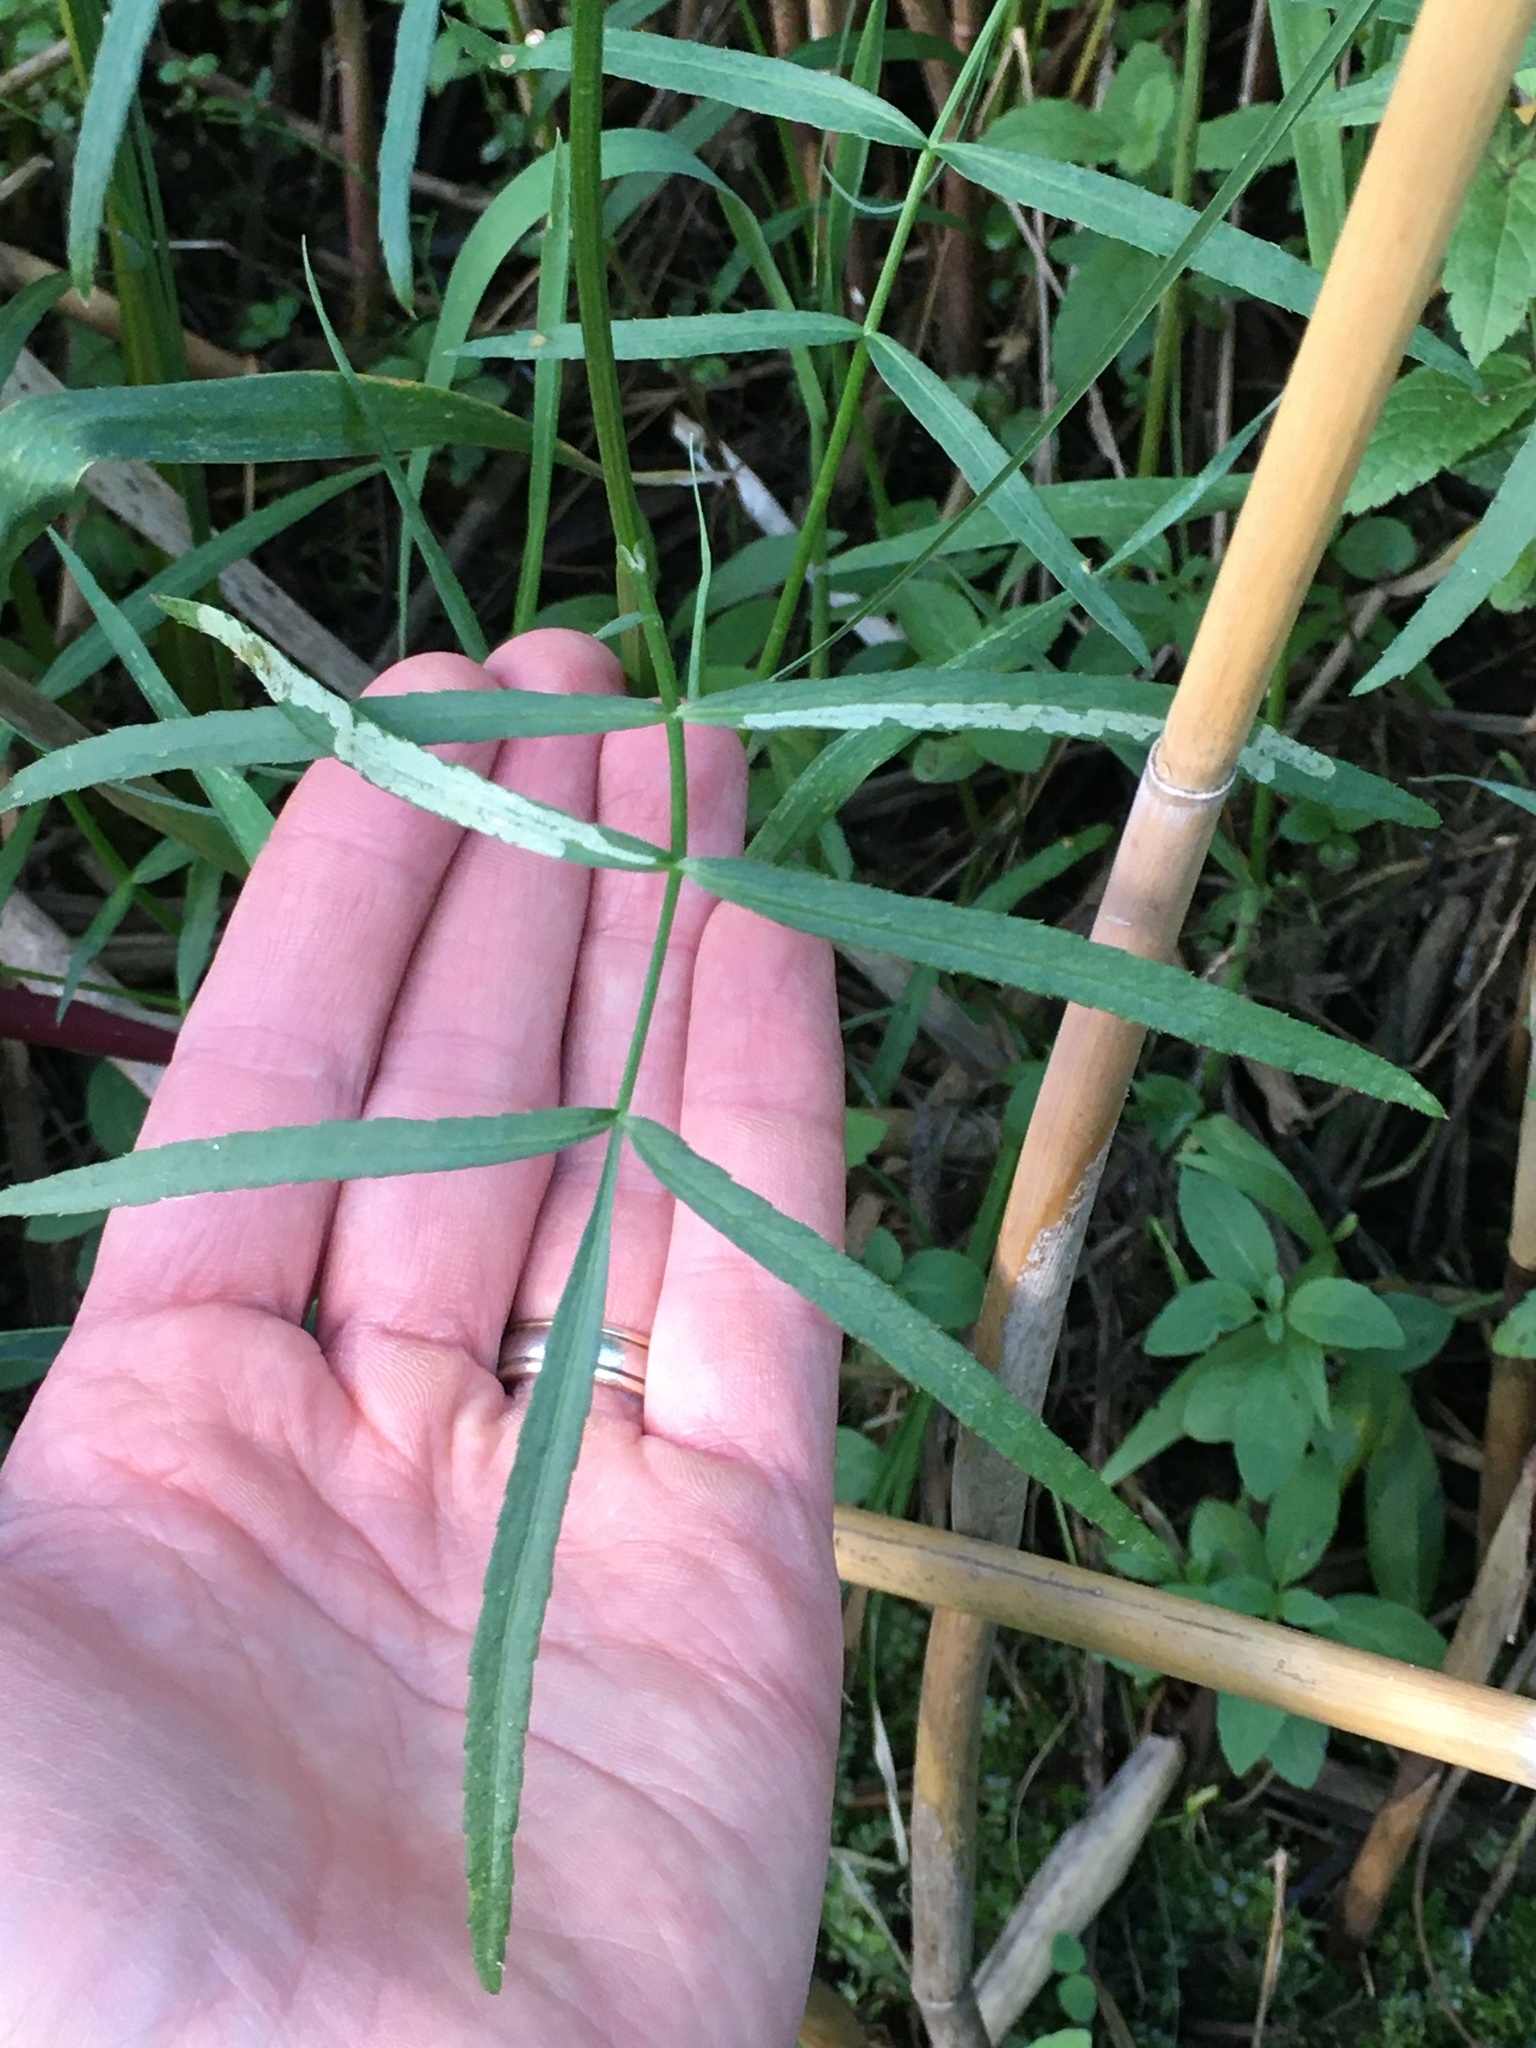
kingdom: Plantae
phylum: Tracheophyta
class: Magnoliopsida
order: Apiales
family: Apiaceae
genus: Sium
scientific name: Sium suave
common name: Hemlock water-parsnip
